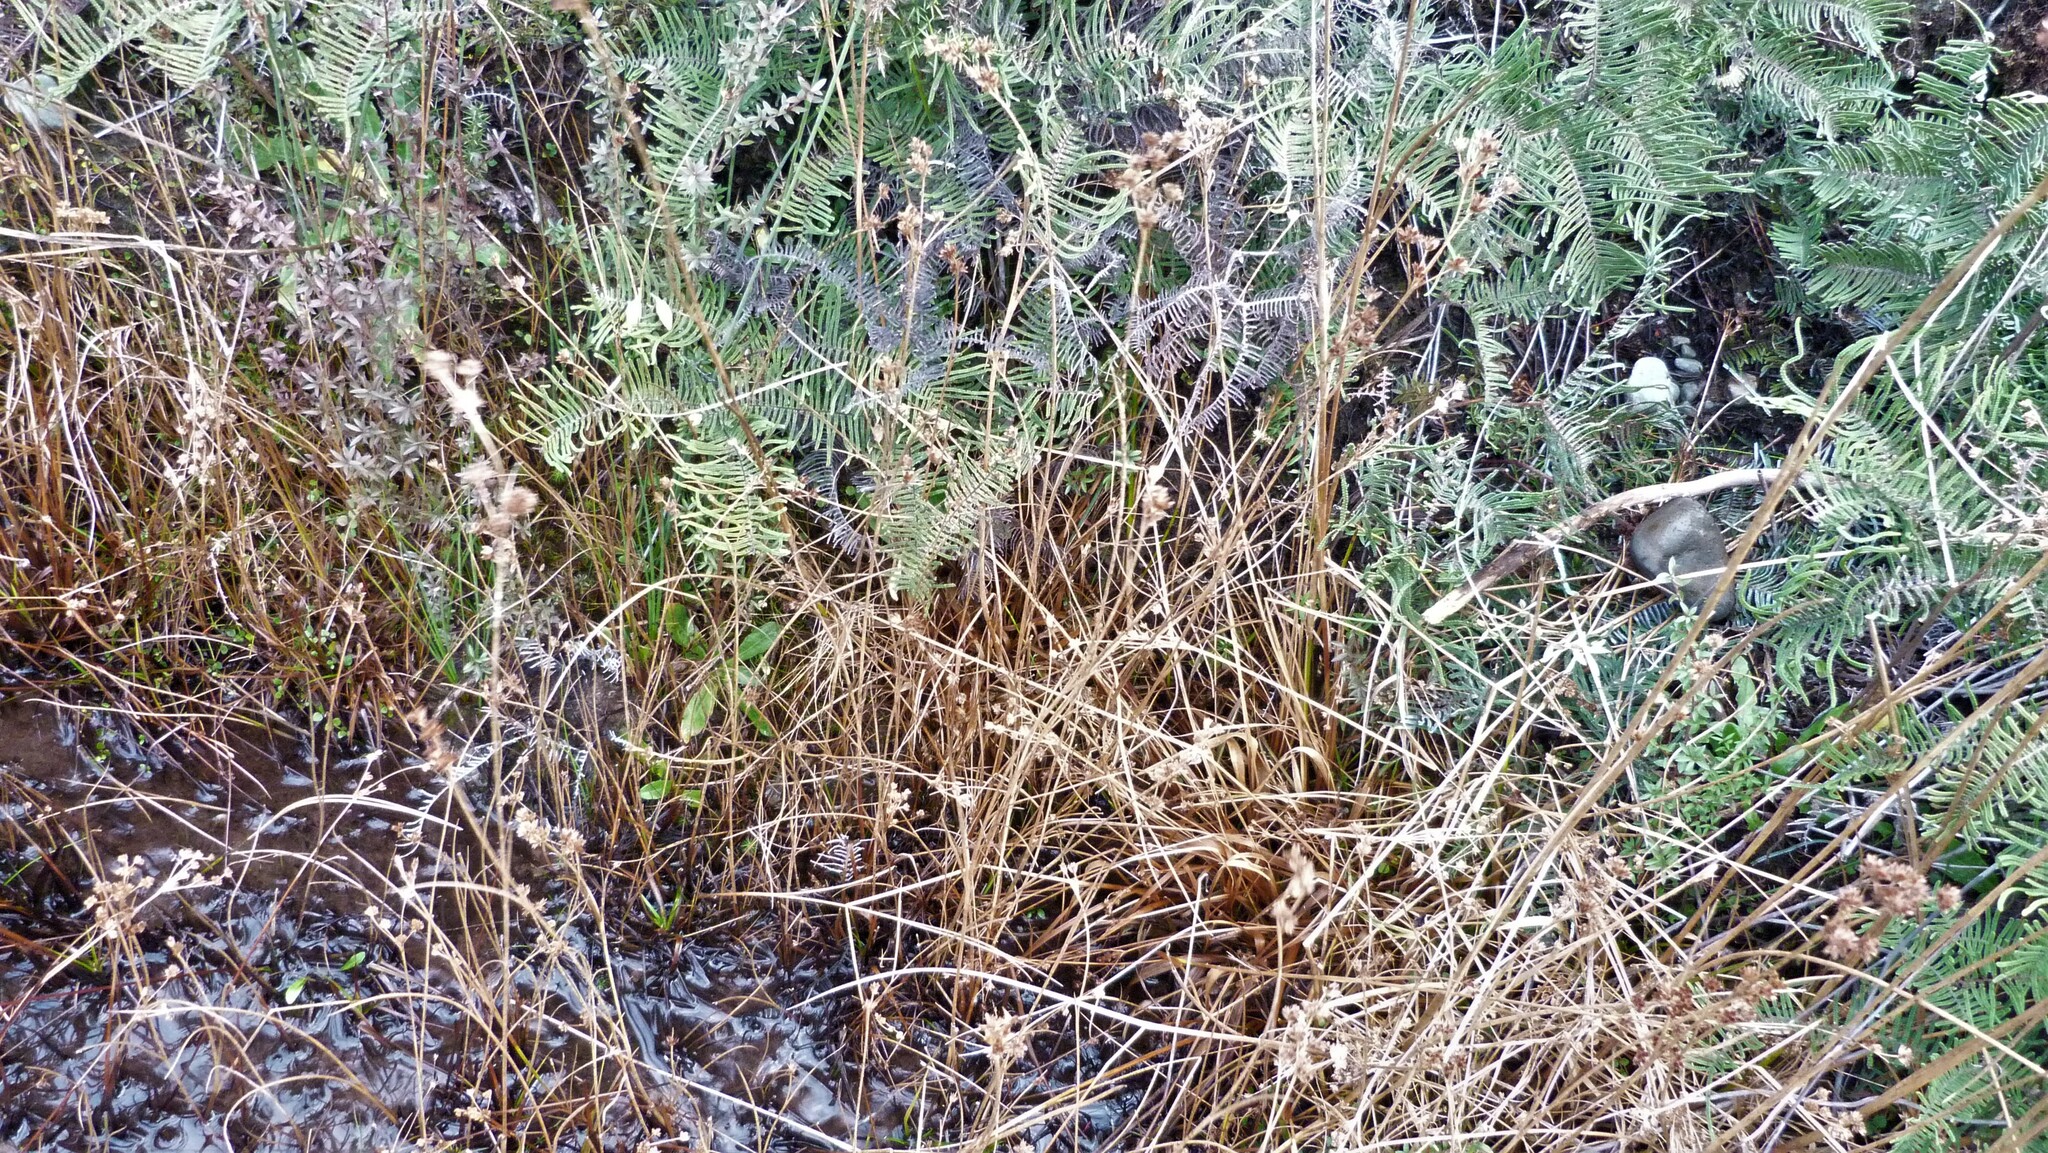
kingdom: Plantae
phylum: Tracheophyta
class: Liliopsida
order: Poales
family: Juncaceae
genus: Juncus
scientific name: Juncus planifolius
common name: Broadleaf rush
